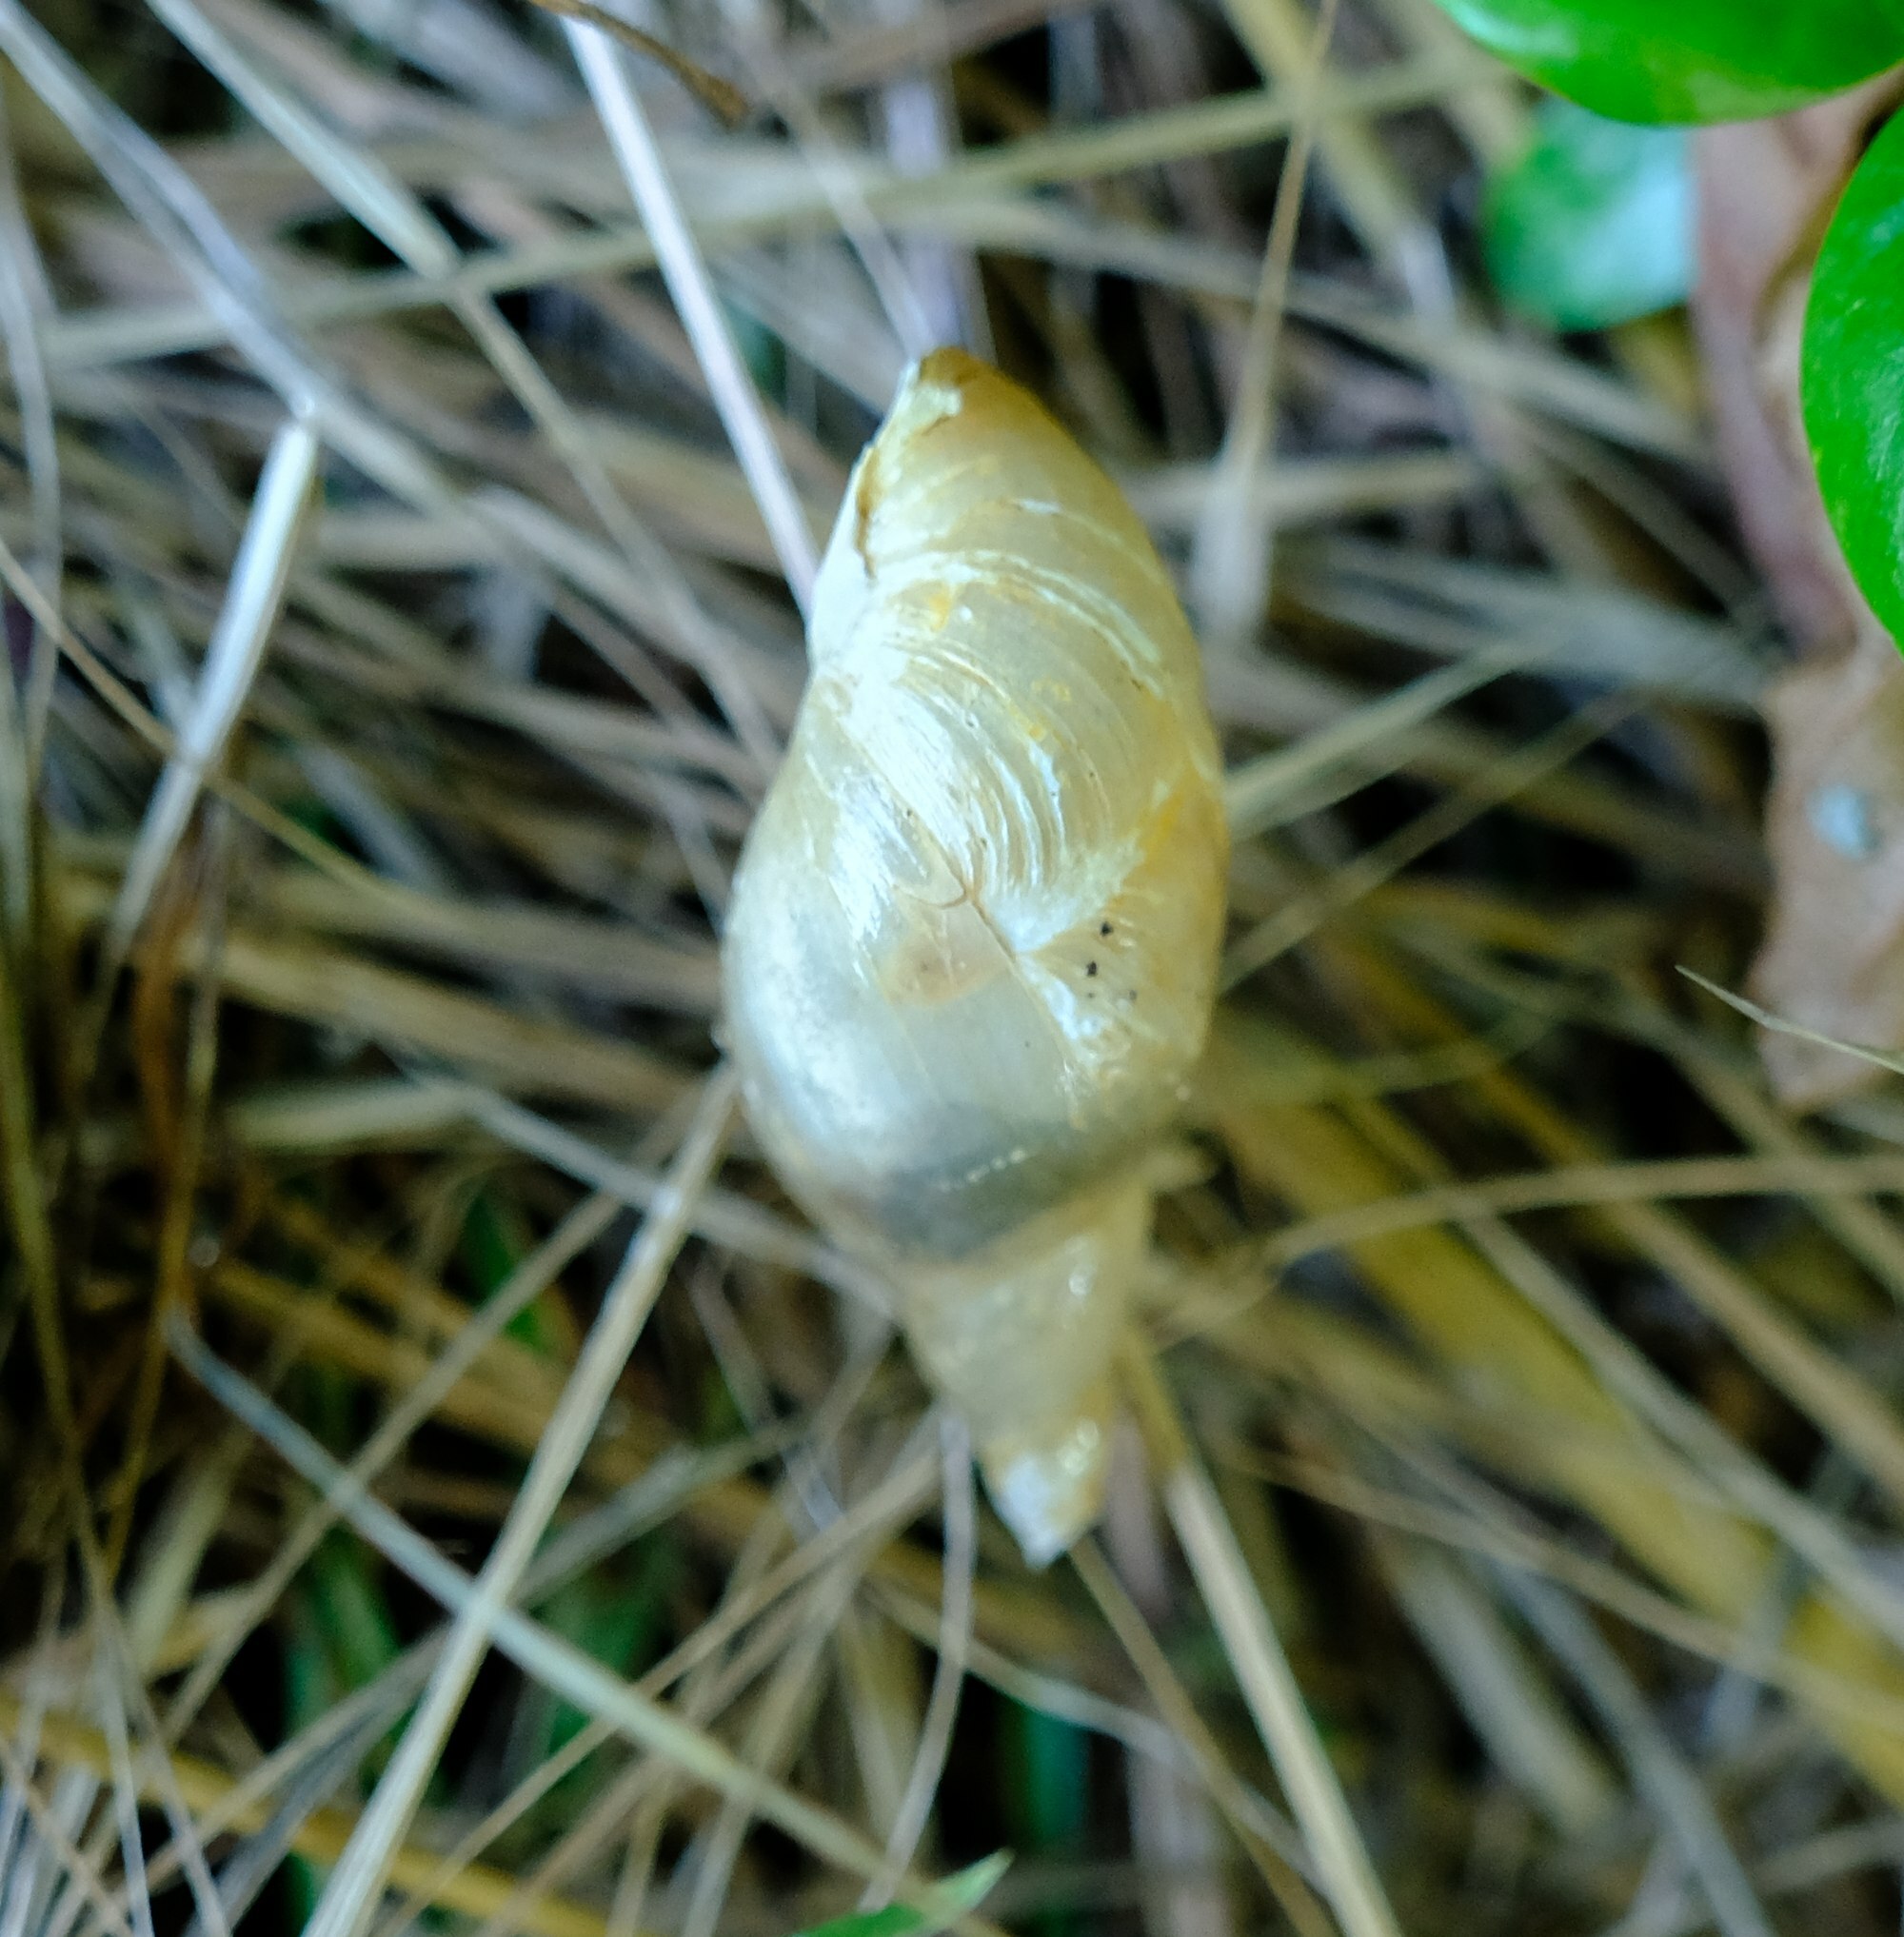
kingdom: Animalia
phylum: Mollusca
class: Gastropoda
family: Lymnaeidae
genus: Lymnaea
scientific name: Lymnaea stagnalis
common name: Great pond snail
